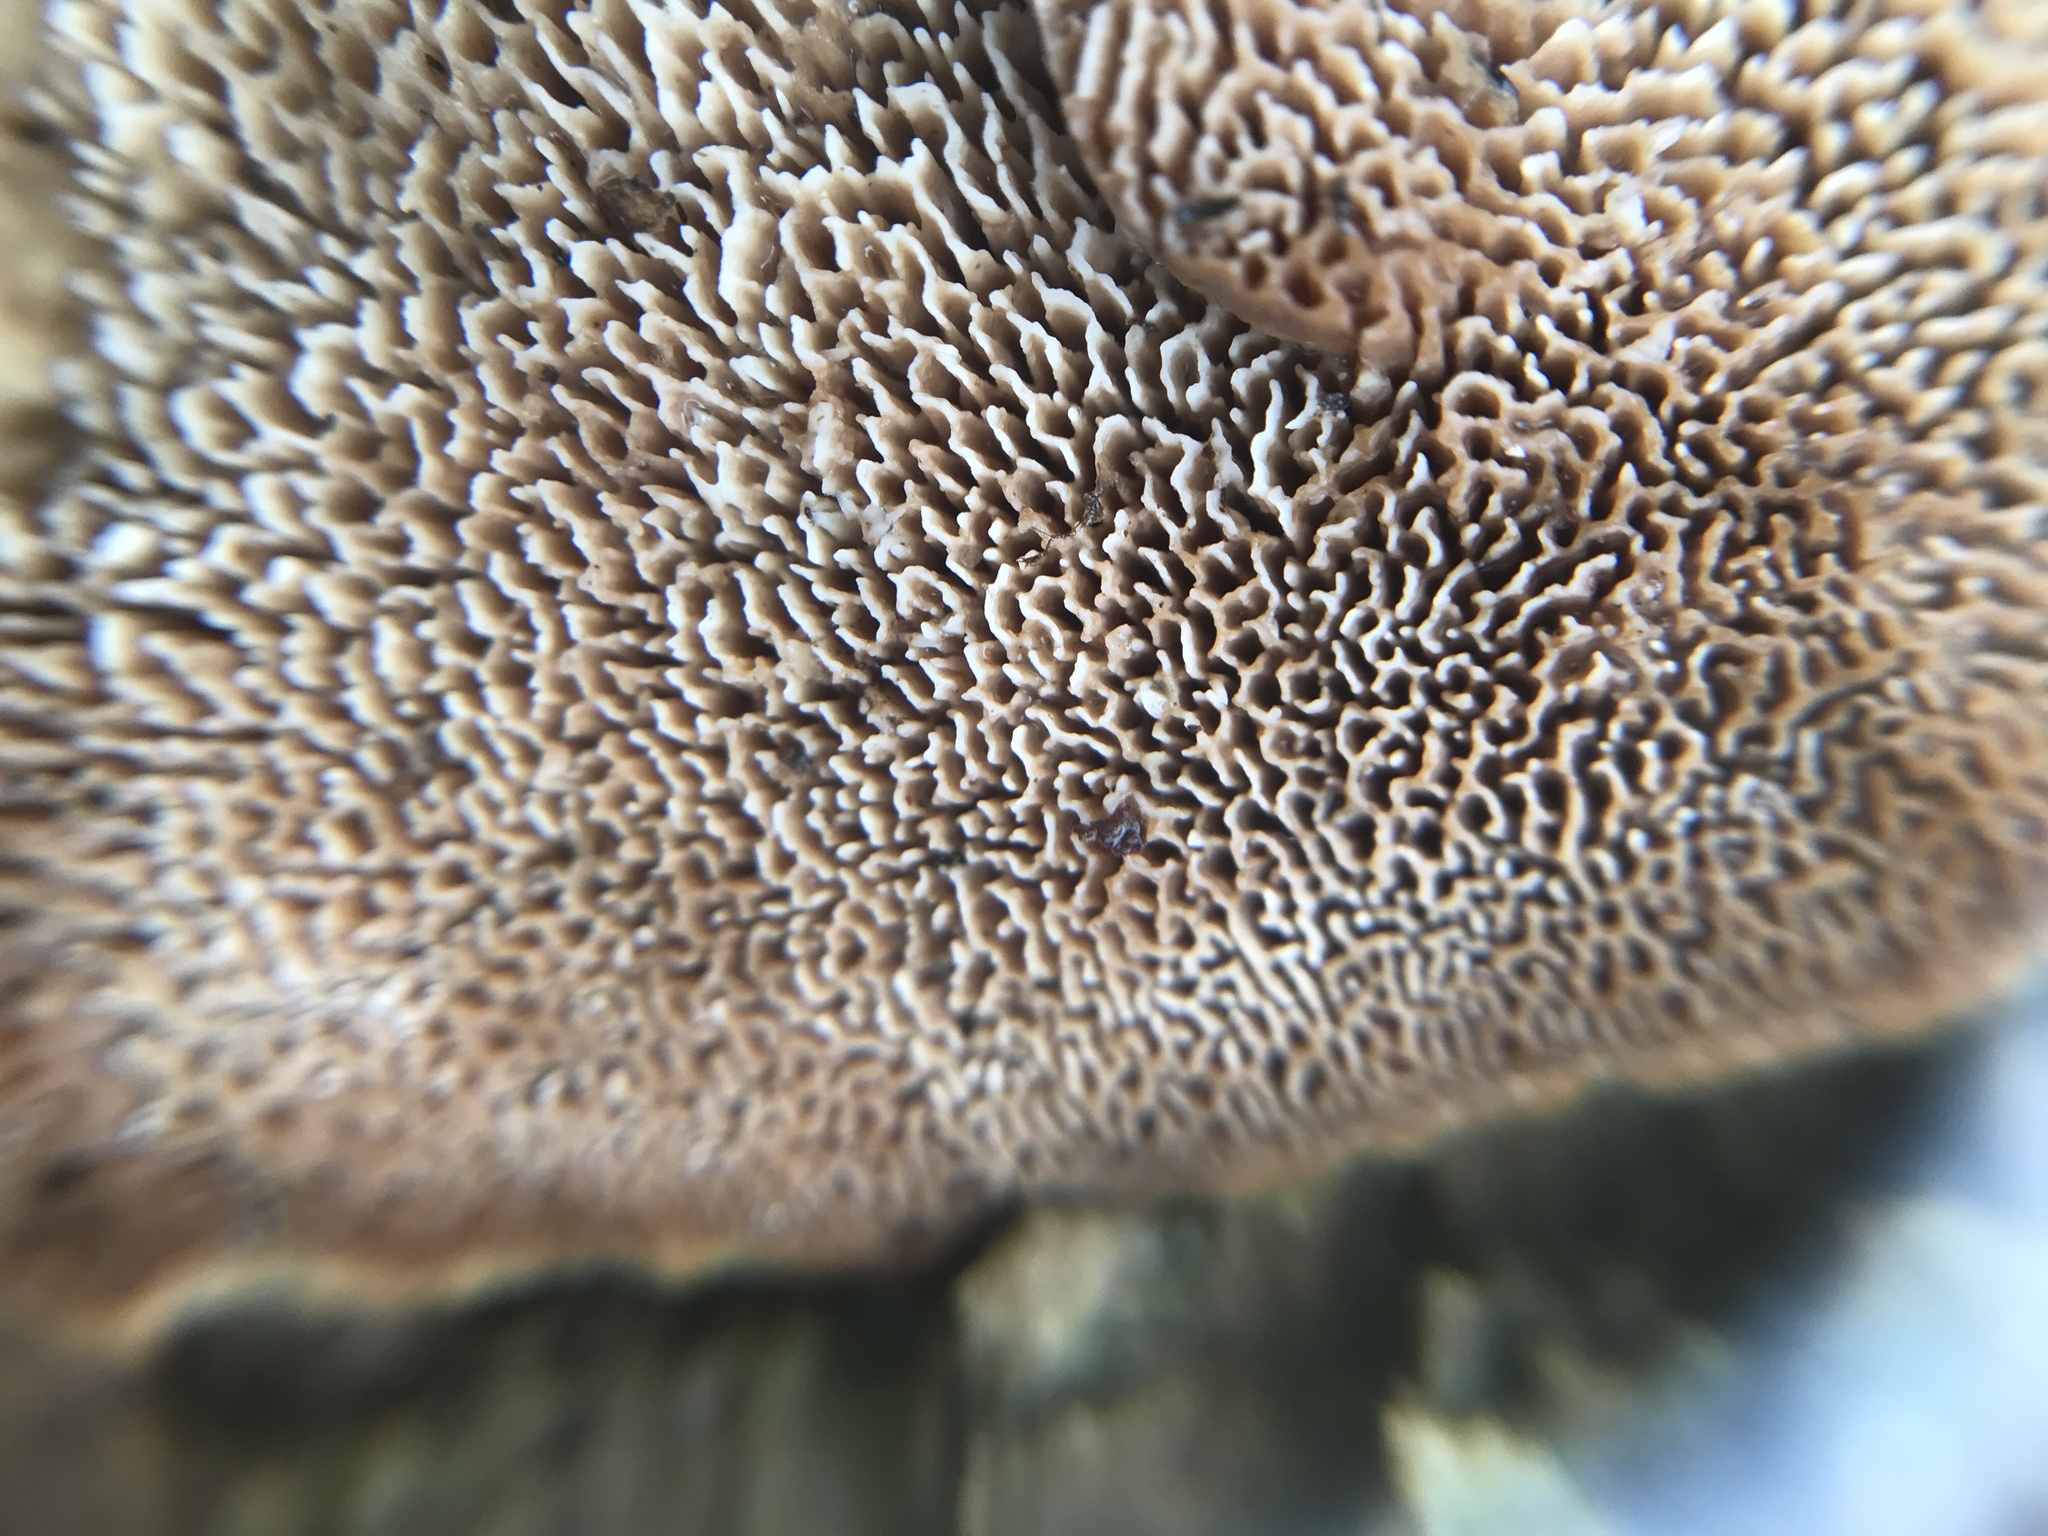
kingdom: Fungi
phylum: Basidiomycota
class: Agaricomycetes
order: Polyporales
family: Irpicaceae
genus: Trametopsis
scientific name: Trametopsis cervina
